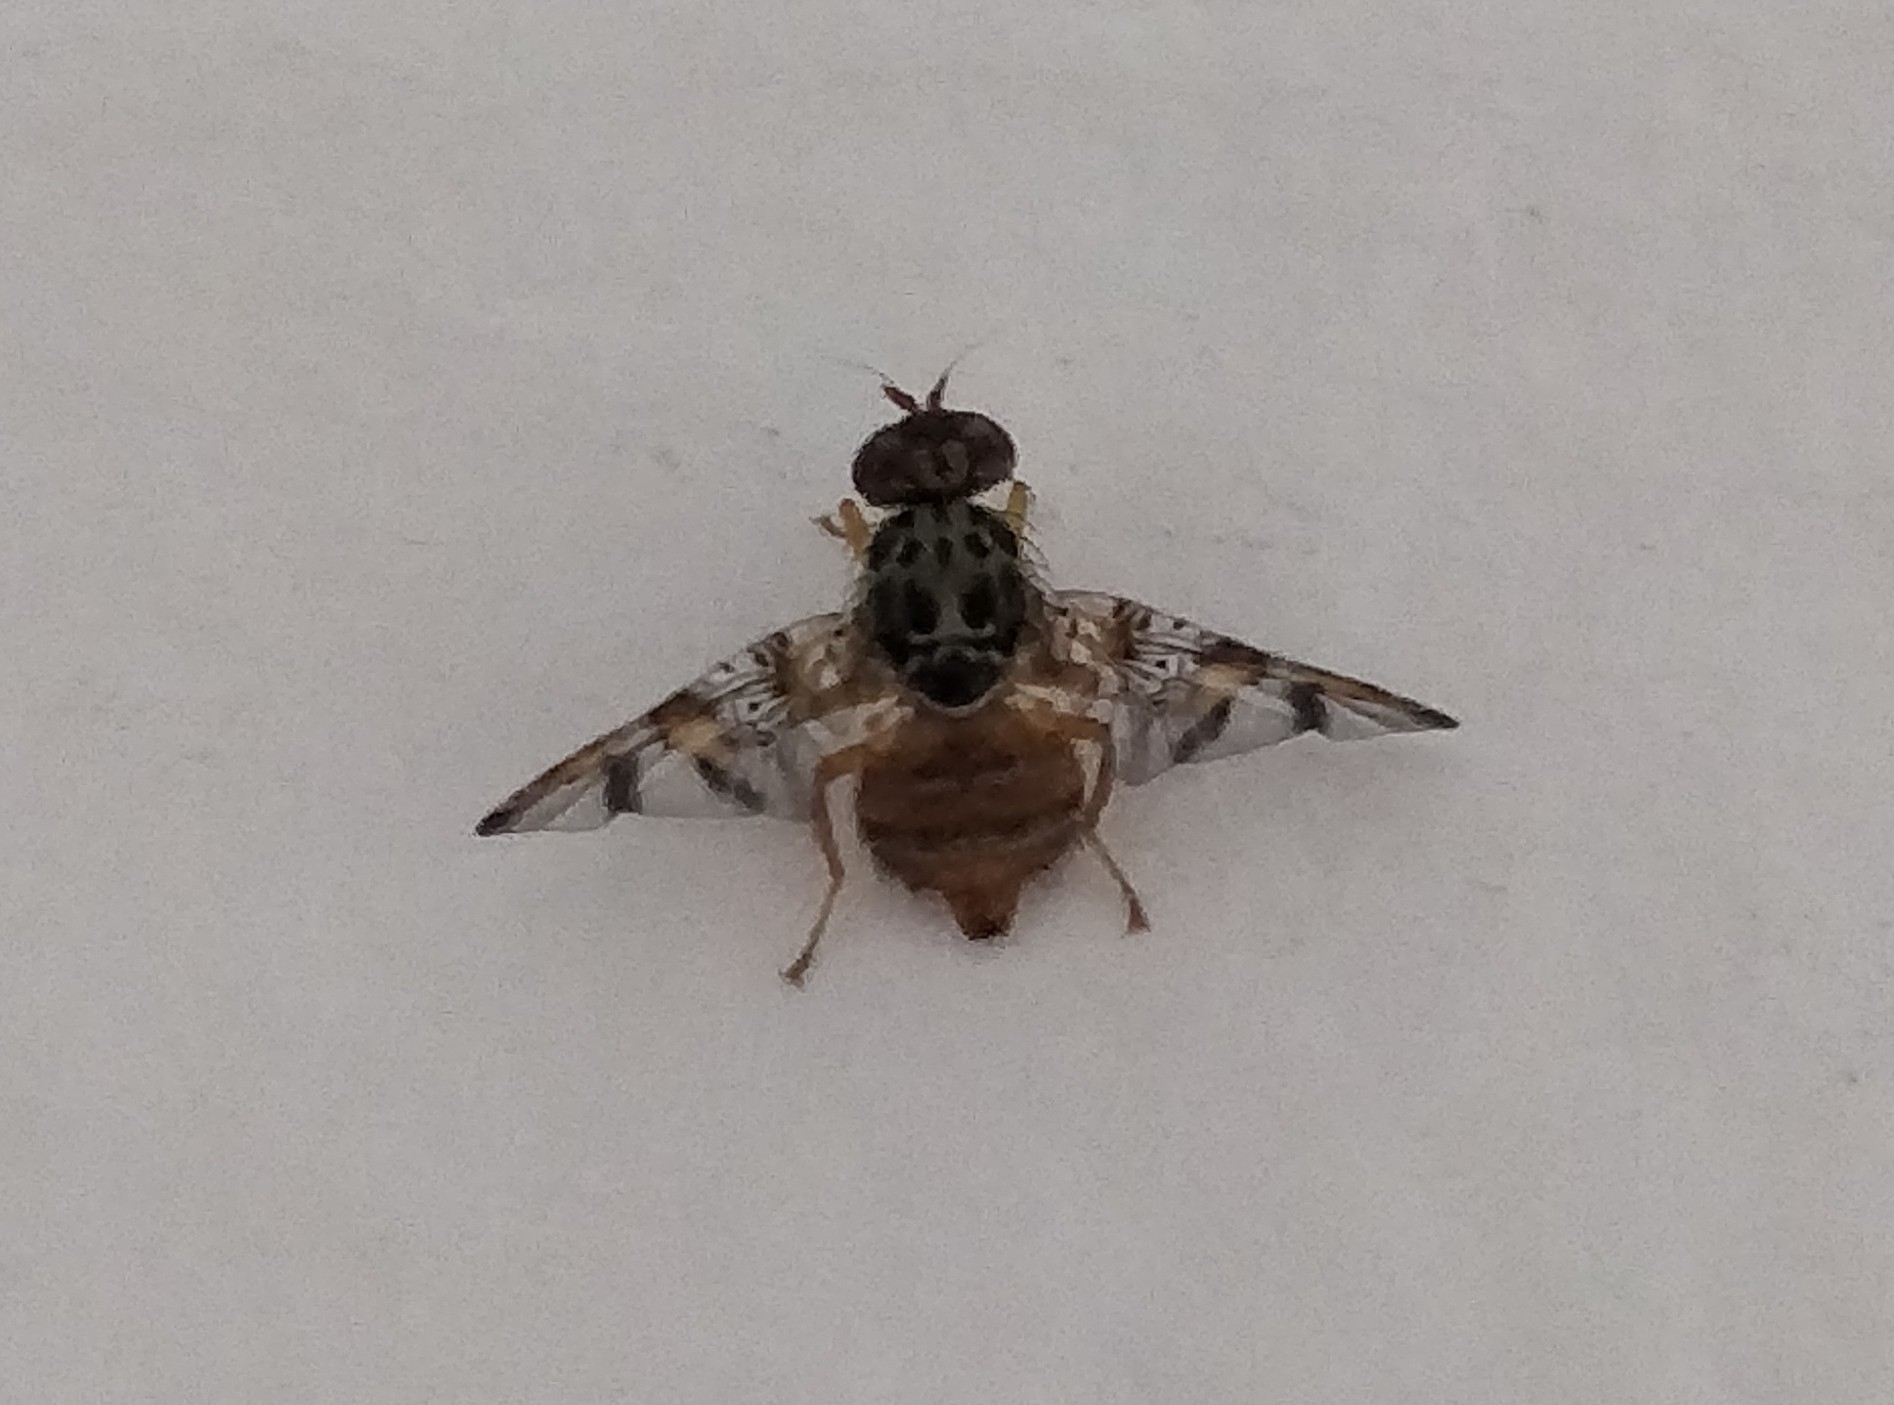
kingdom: Animalia
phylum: Arthropoda
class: Insecta
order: Diptera
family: Tephritidae
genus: Ceratitis
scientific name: Ceratitis capitata
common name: Mediterranean fruit fly
